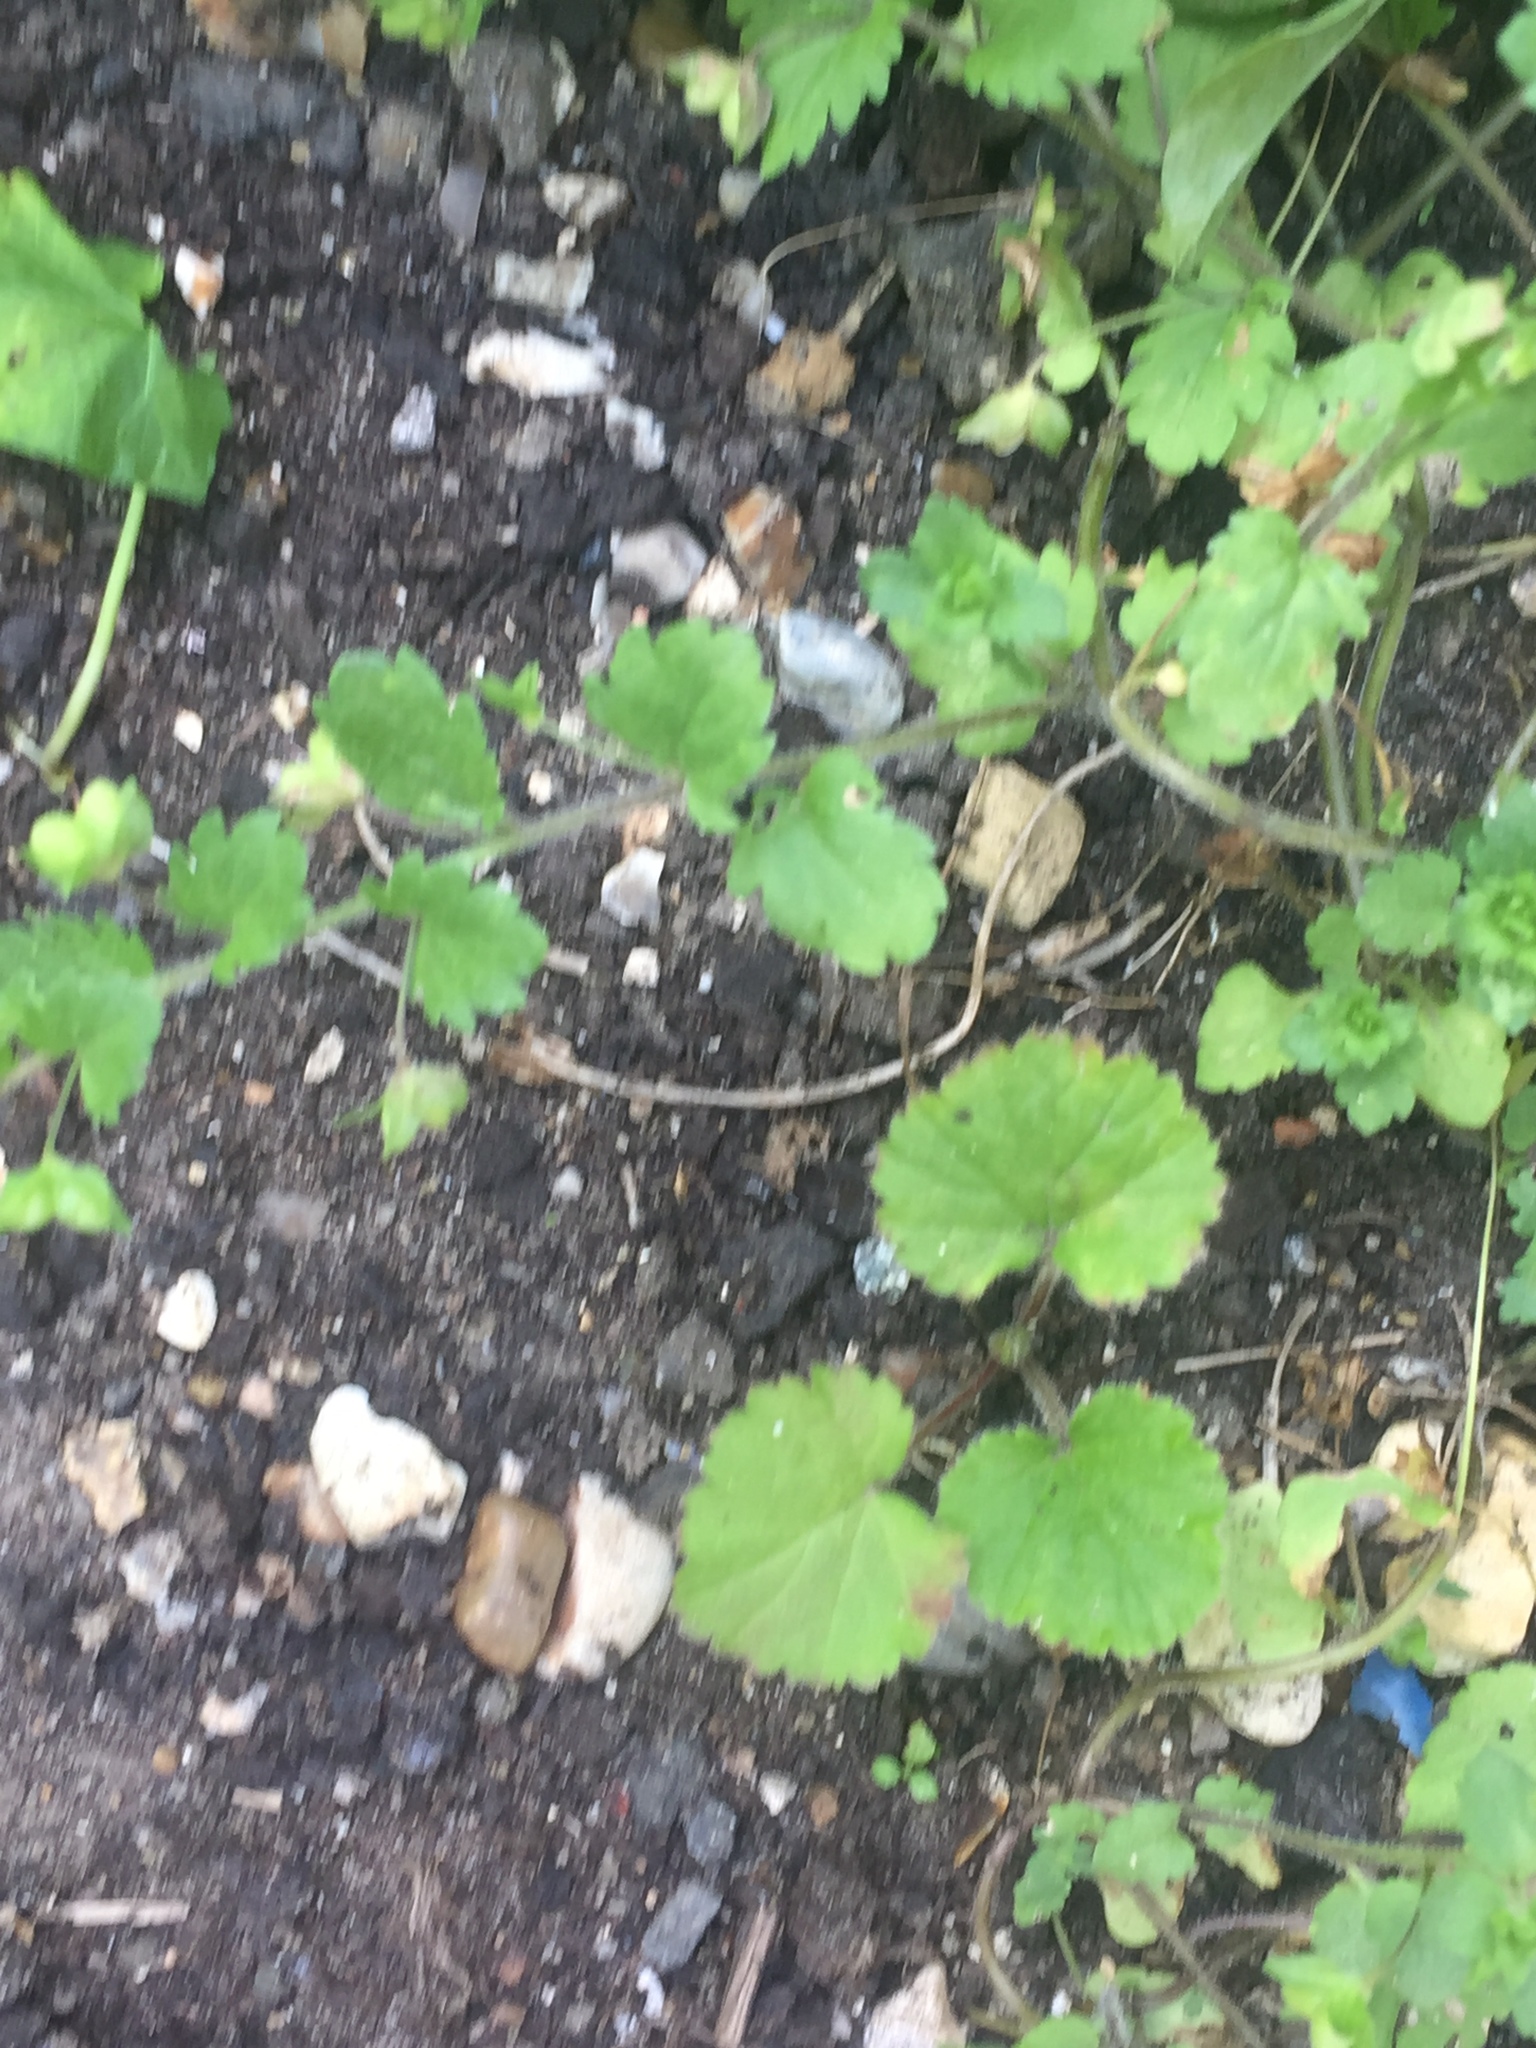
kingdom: Plantae
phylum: Tracheophyta
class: Magnoliopsida
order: Rosales
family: Rosaceae
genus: Geum
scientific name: Geum urbanum
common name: Wood avens
